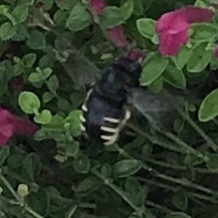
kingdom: Animalia
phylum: Arthropoda
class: Insecta
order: Hymenoptera
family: Apidae
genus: Xylocopa
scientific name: Xylocopa tabaniformis
